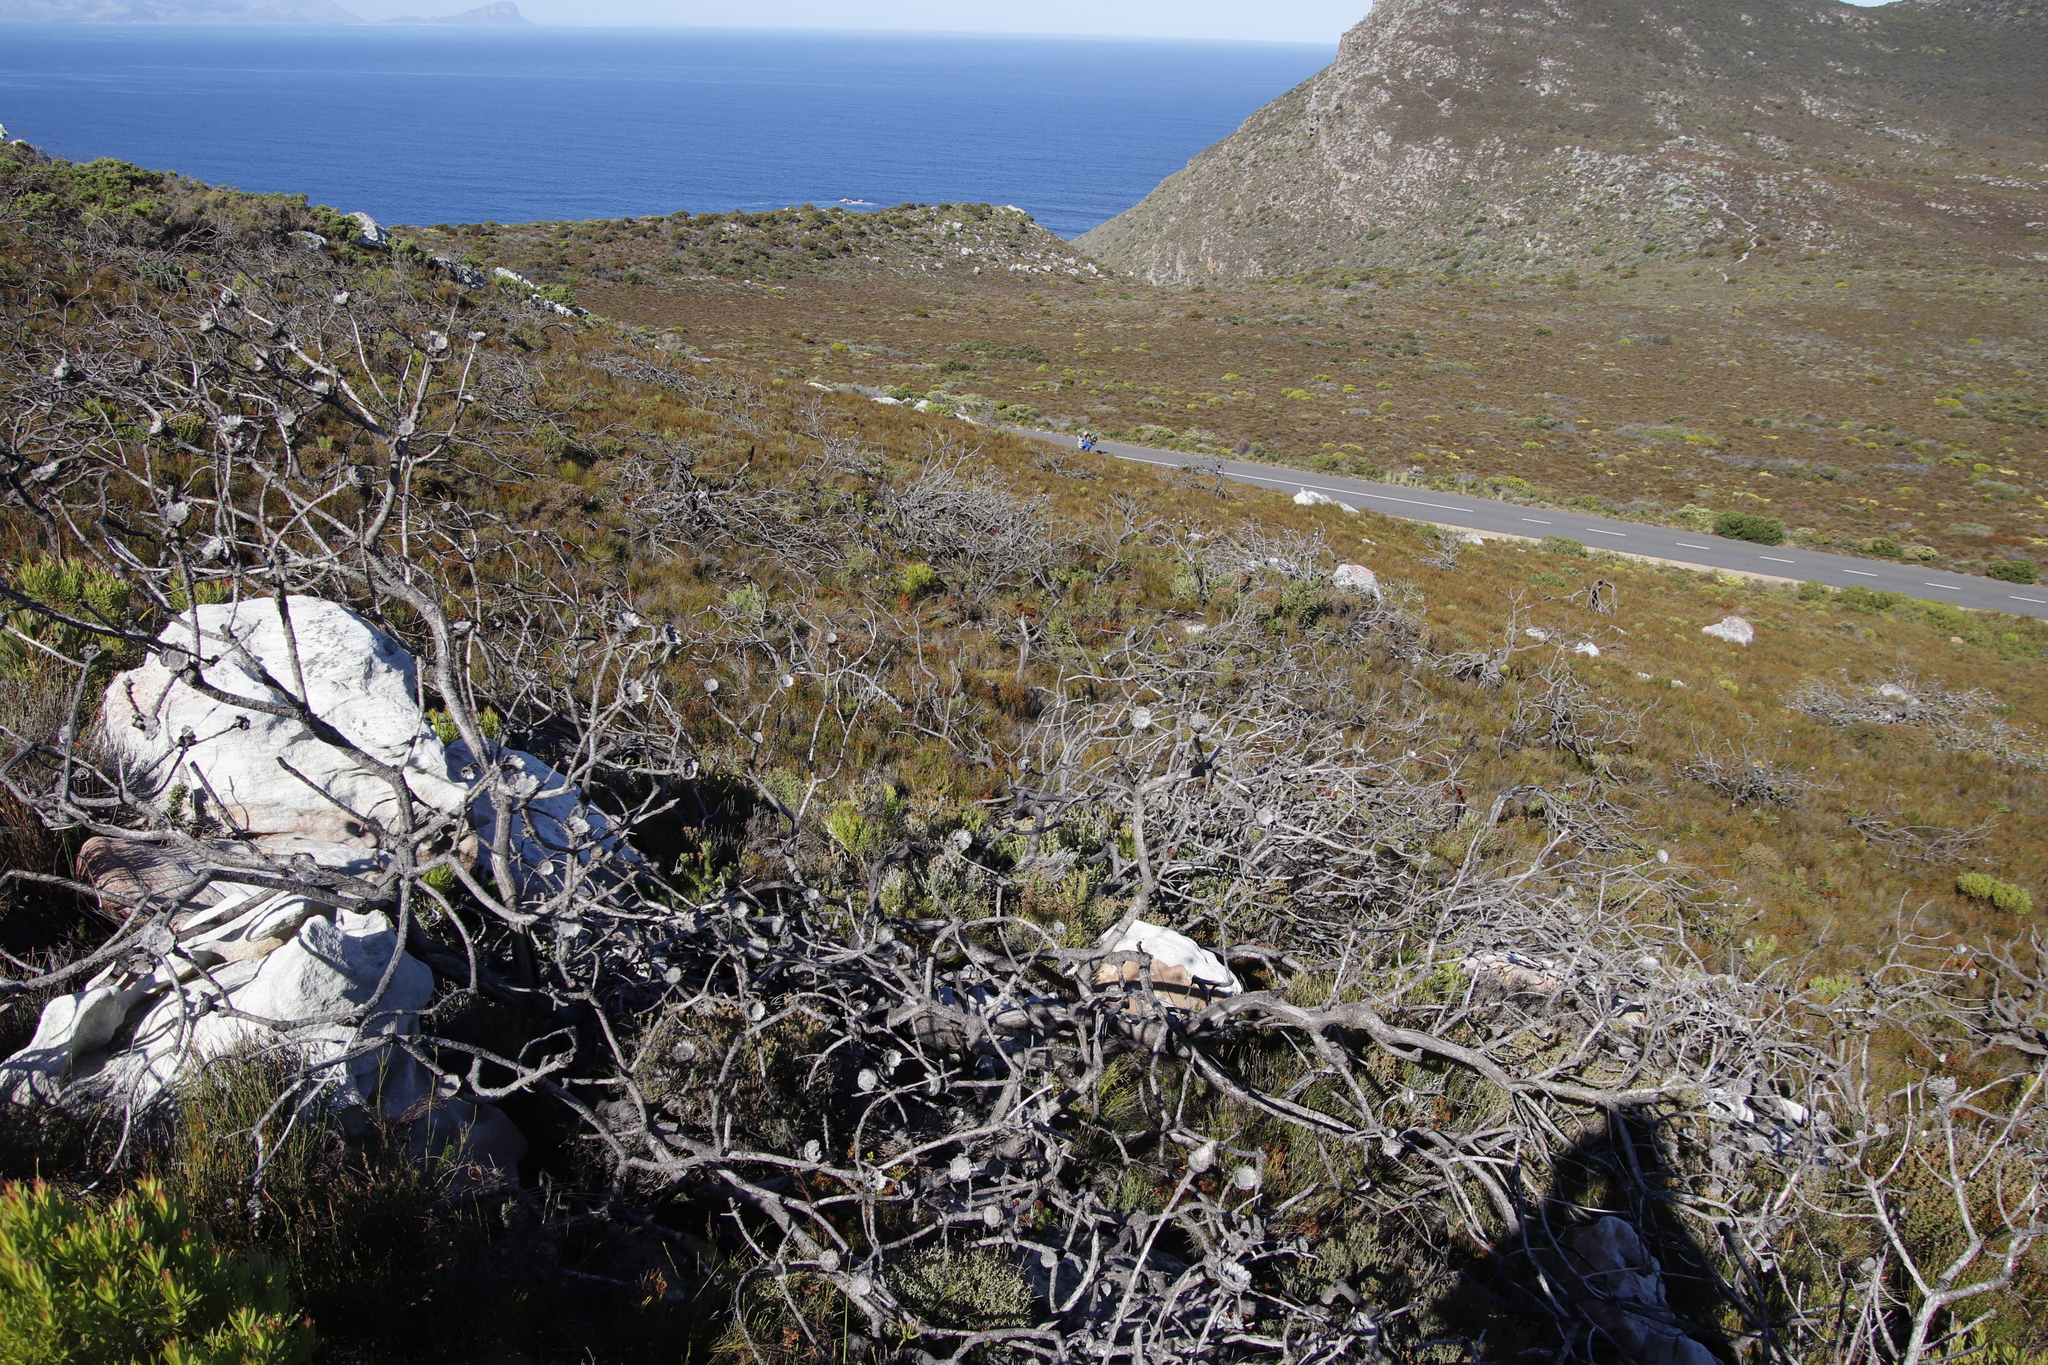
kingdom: Plantae
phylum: Tracheophyta
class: Magnoliopsida
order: Proteales
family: Proteaceae
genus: Protea
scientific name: Protea lepidocarpodendron
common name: Black-bearded protea
